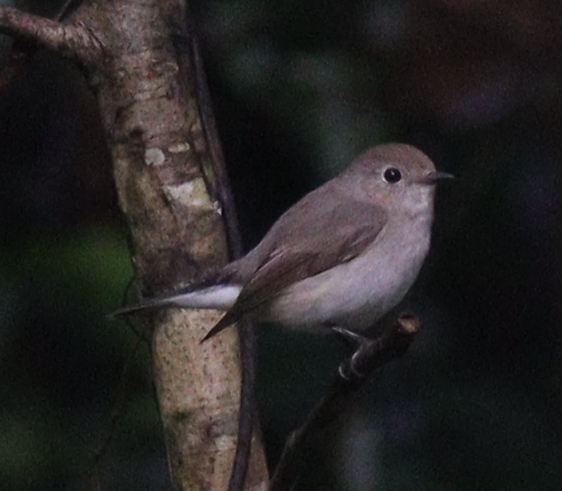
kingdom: Animalia
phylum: Chordata
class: Aves
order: Passeriformes
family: Muscicapidae
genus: Ficedula
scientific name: Ficedula albicilla
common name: Taiga flycatcher
